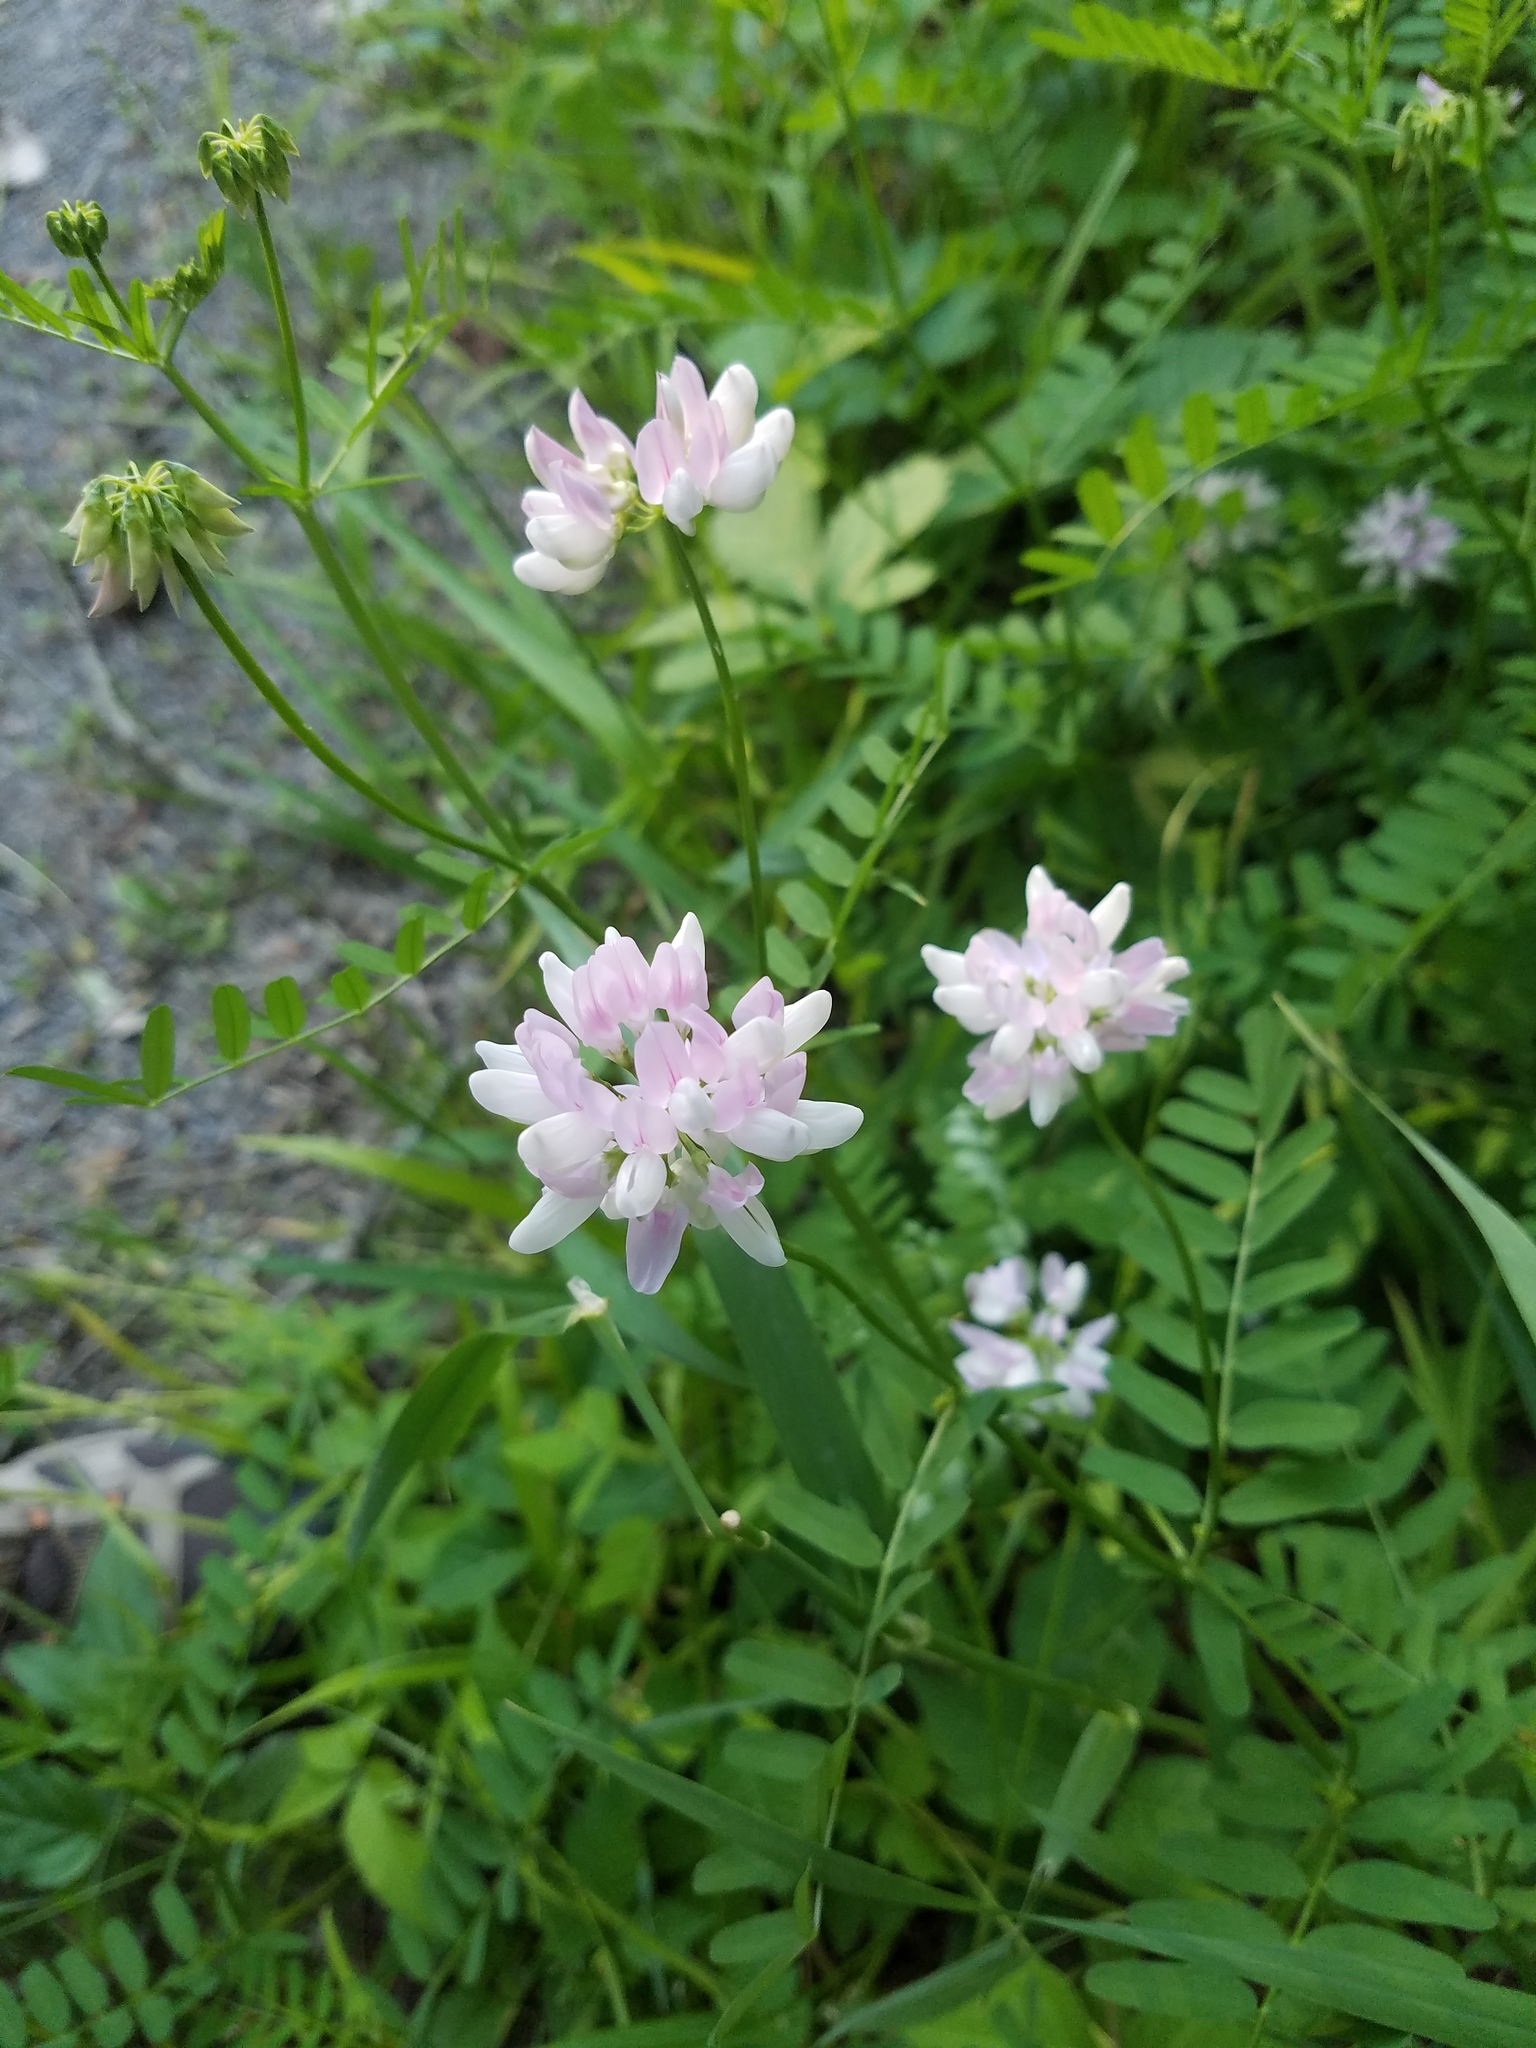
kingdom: Plantae
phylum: Tracheophyta
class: Magnoliopsida
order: Fabales
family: Fabaceae
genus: Coronilla
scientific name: Coronilla varia
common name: Crownvetch
